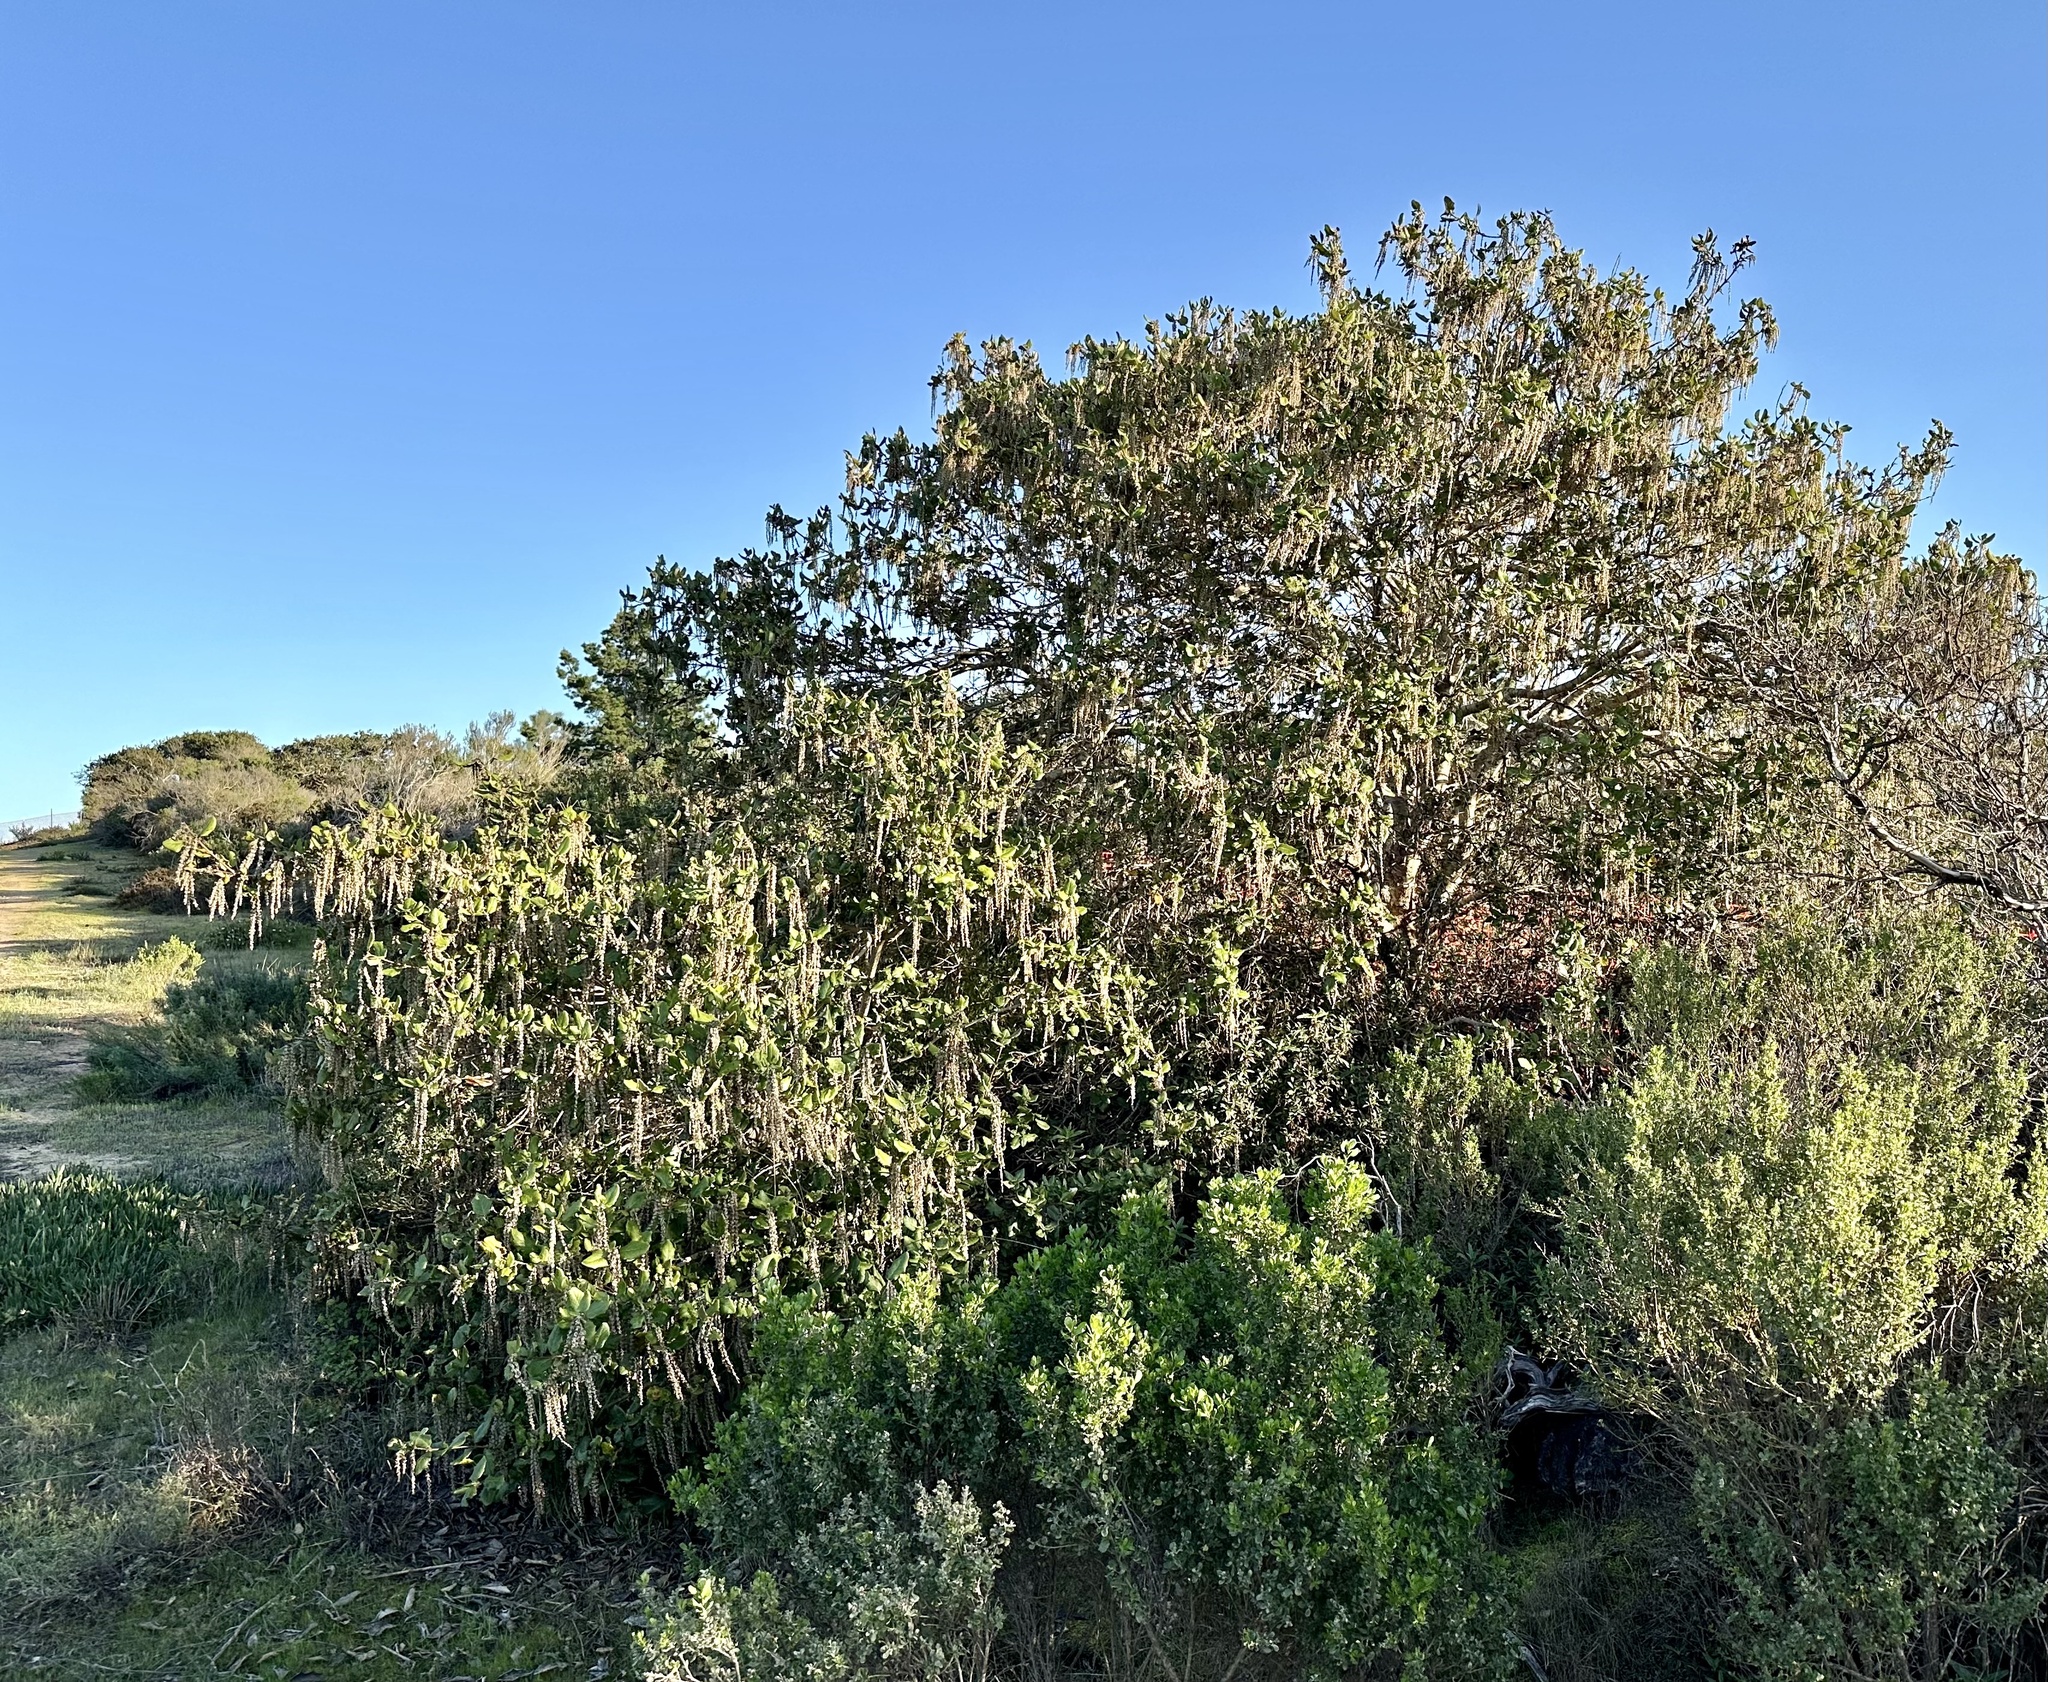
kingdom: Plantae
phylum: Tracheophyta
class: Magnoliopsida
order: Garryales
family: Garryaceae
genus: Garrya
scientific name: Garrya elliptica
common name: Silk-tassel
